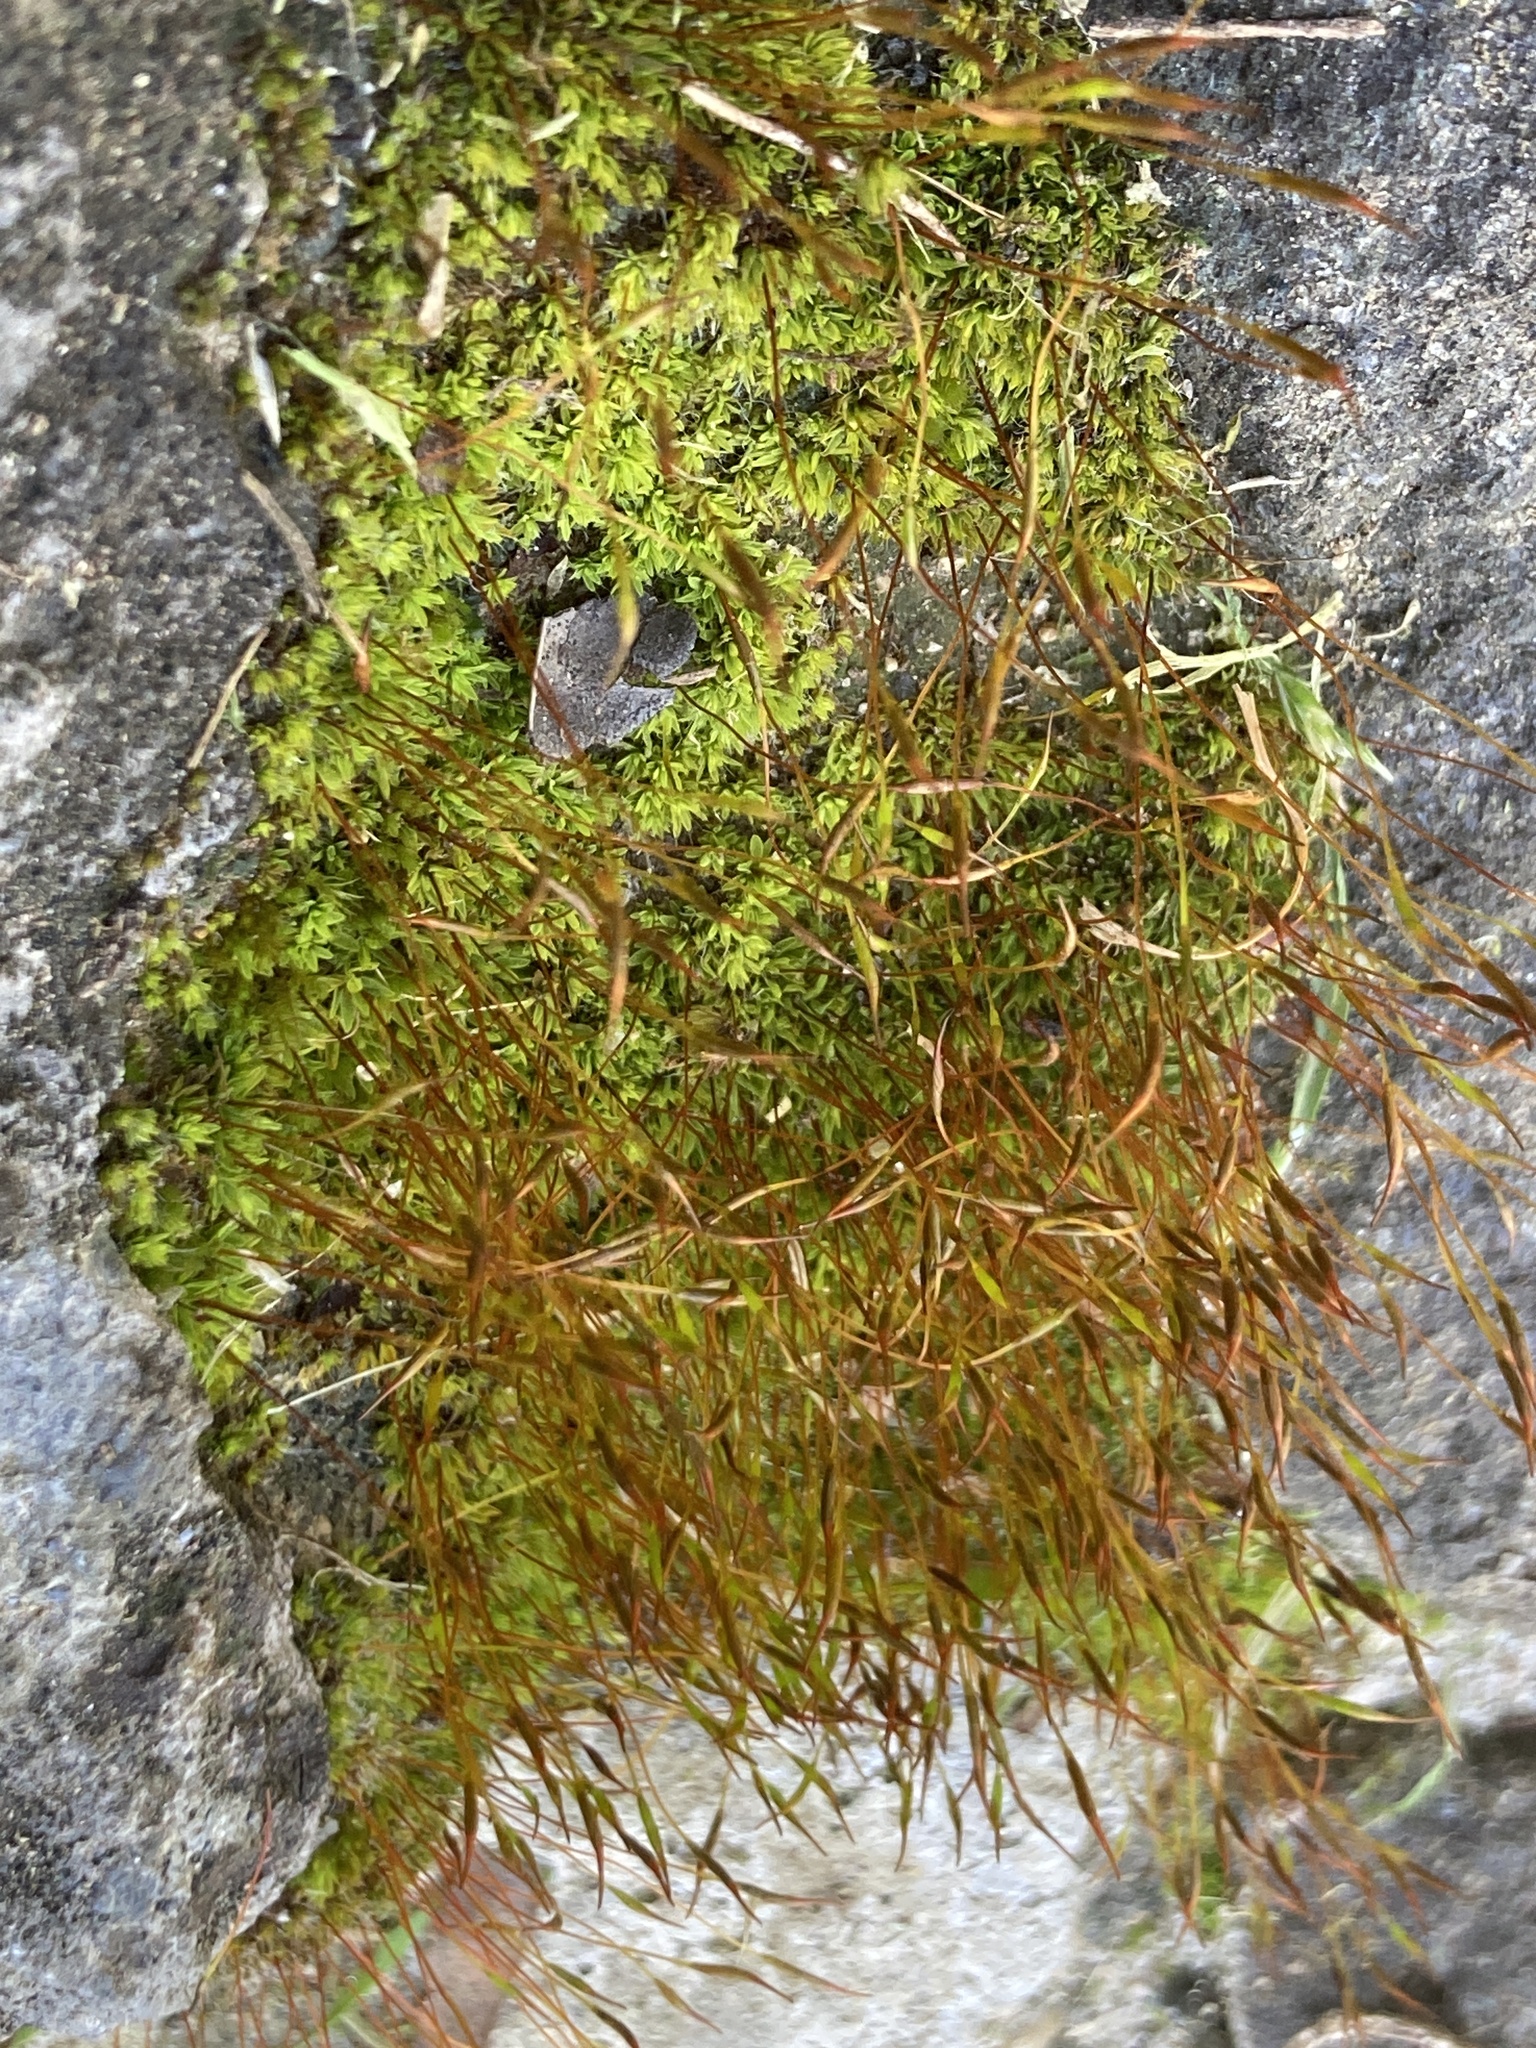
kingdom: Plantae
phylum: Bryophyta
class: Bryopsida
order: Pottiales
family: Pottiaceae
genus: Tortula
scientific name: Tortula muralis
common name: Wall screw-moss
